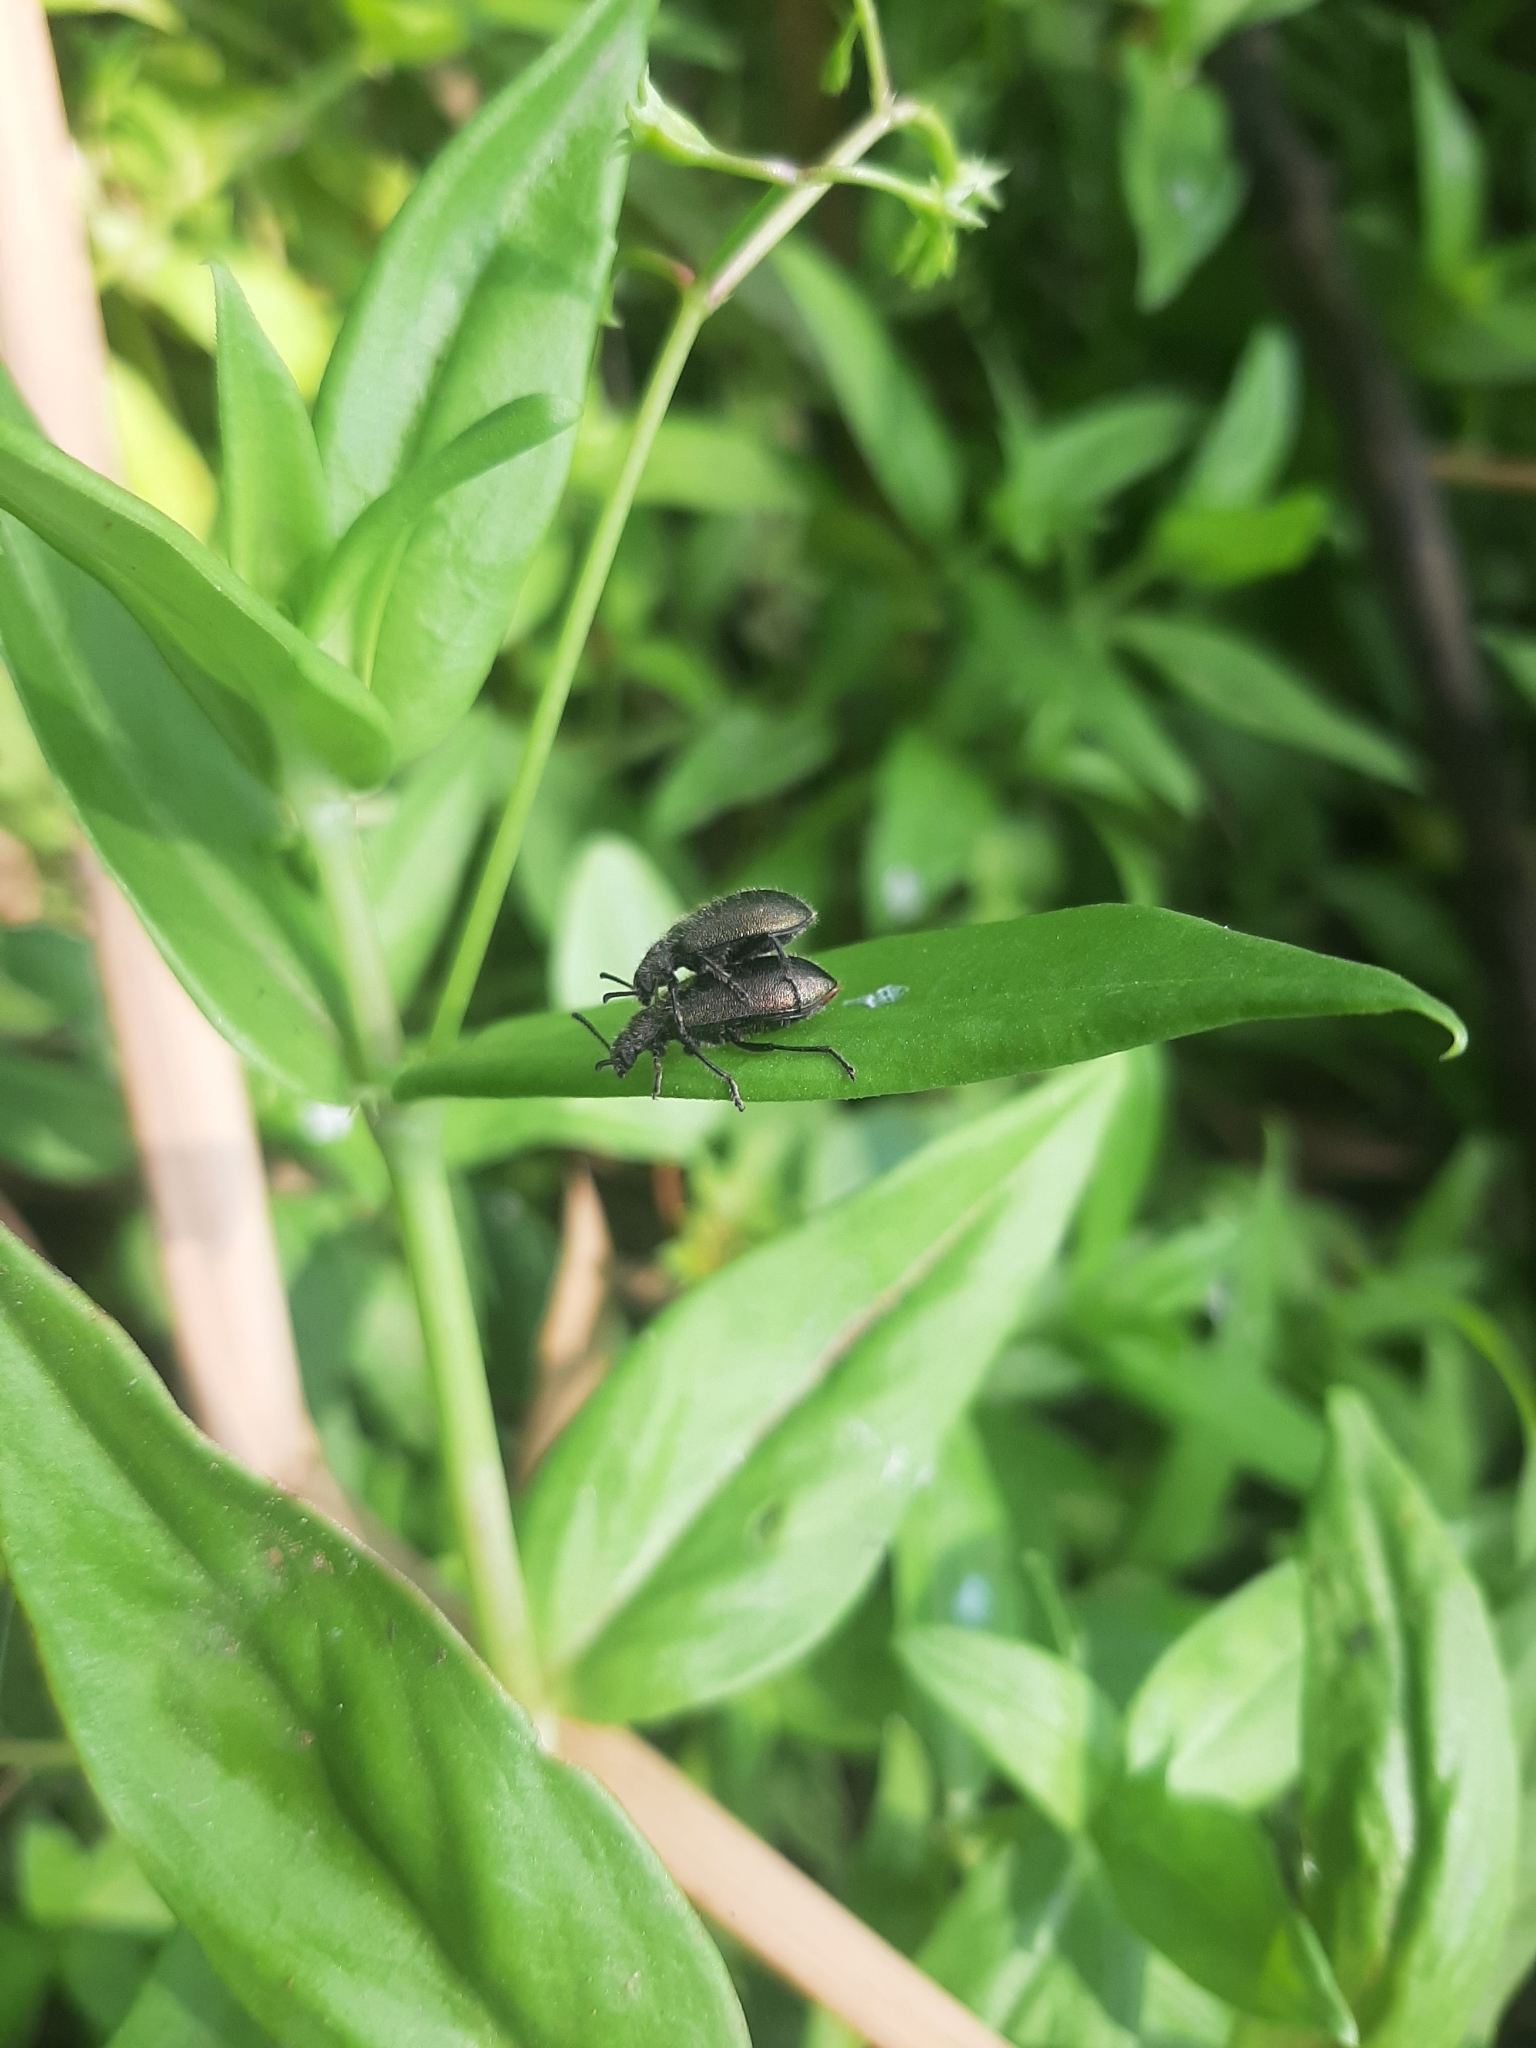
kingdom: Animalia
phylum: Arthropoda
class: Insecta
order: Coleoptera
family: Tenebrionidae
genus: Lagria
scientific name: Lagria villosa
